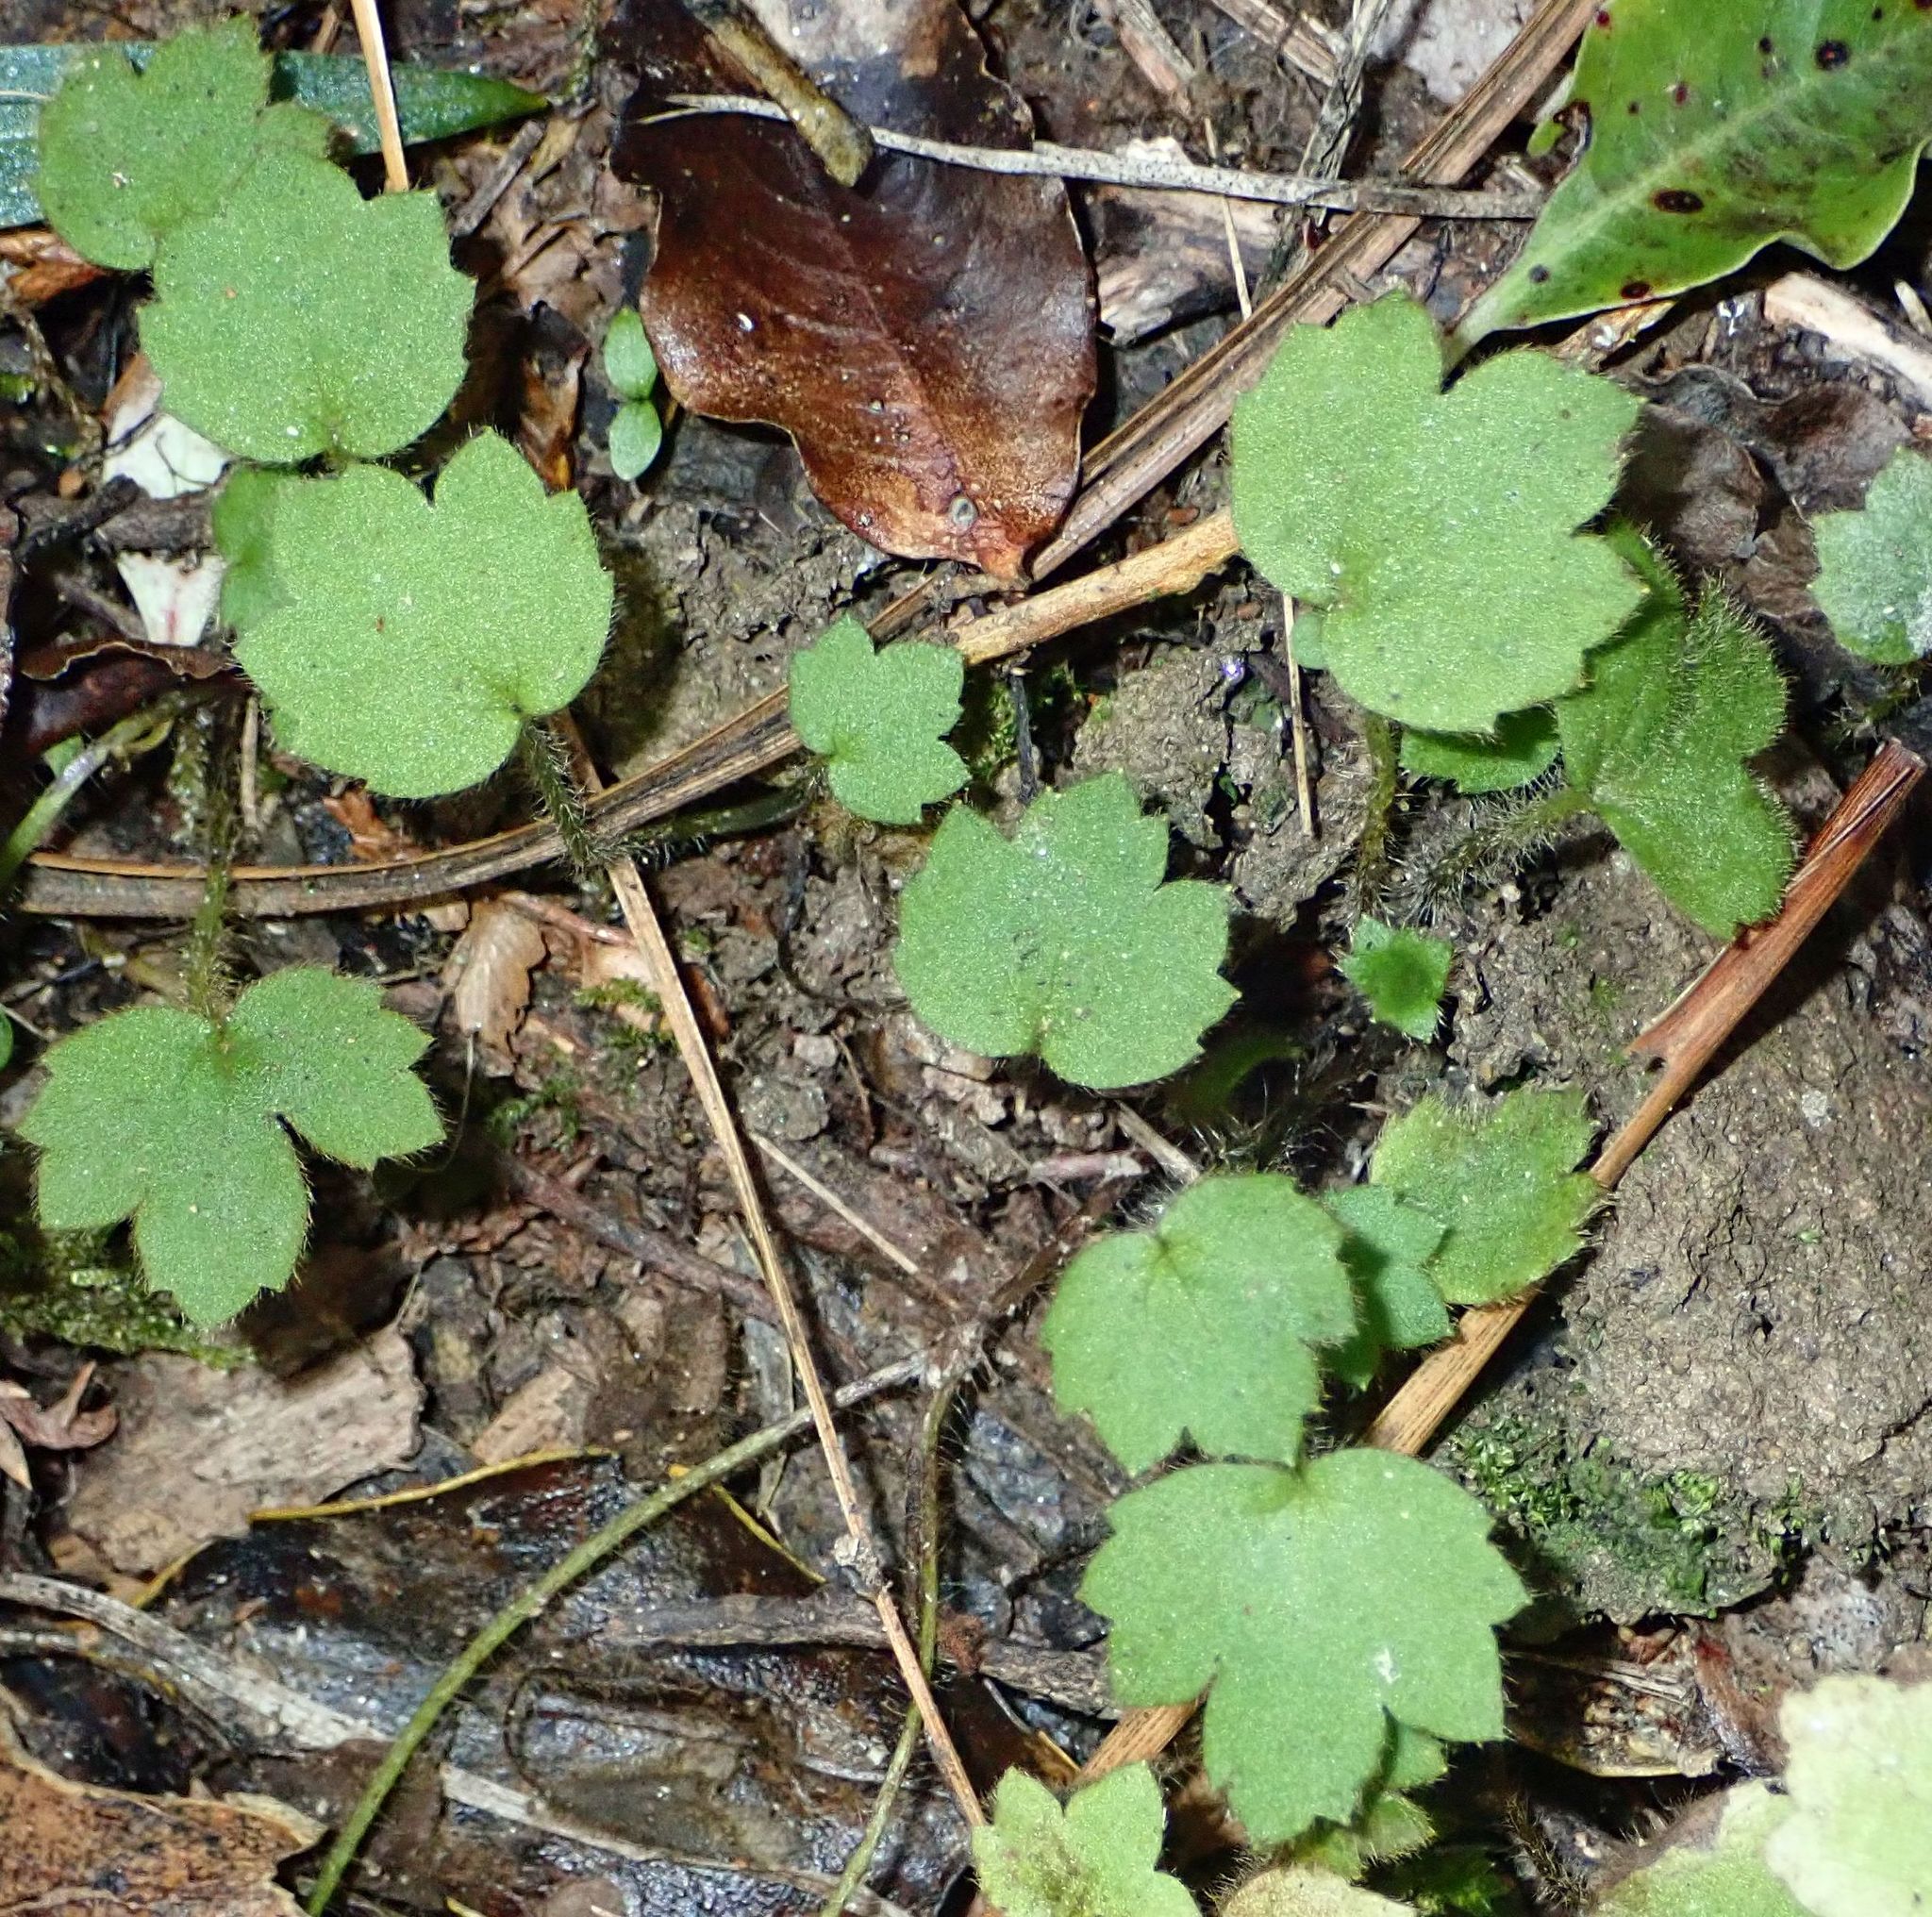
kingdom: Plantae
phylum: Tracheophyta
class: Magnoliopsida
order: Ranunculales
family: Ranunculaceae
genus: Ranunculus
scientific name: Ranunculus reflexus
